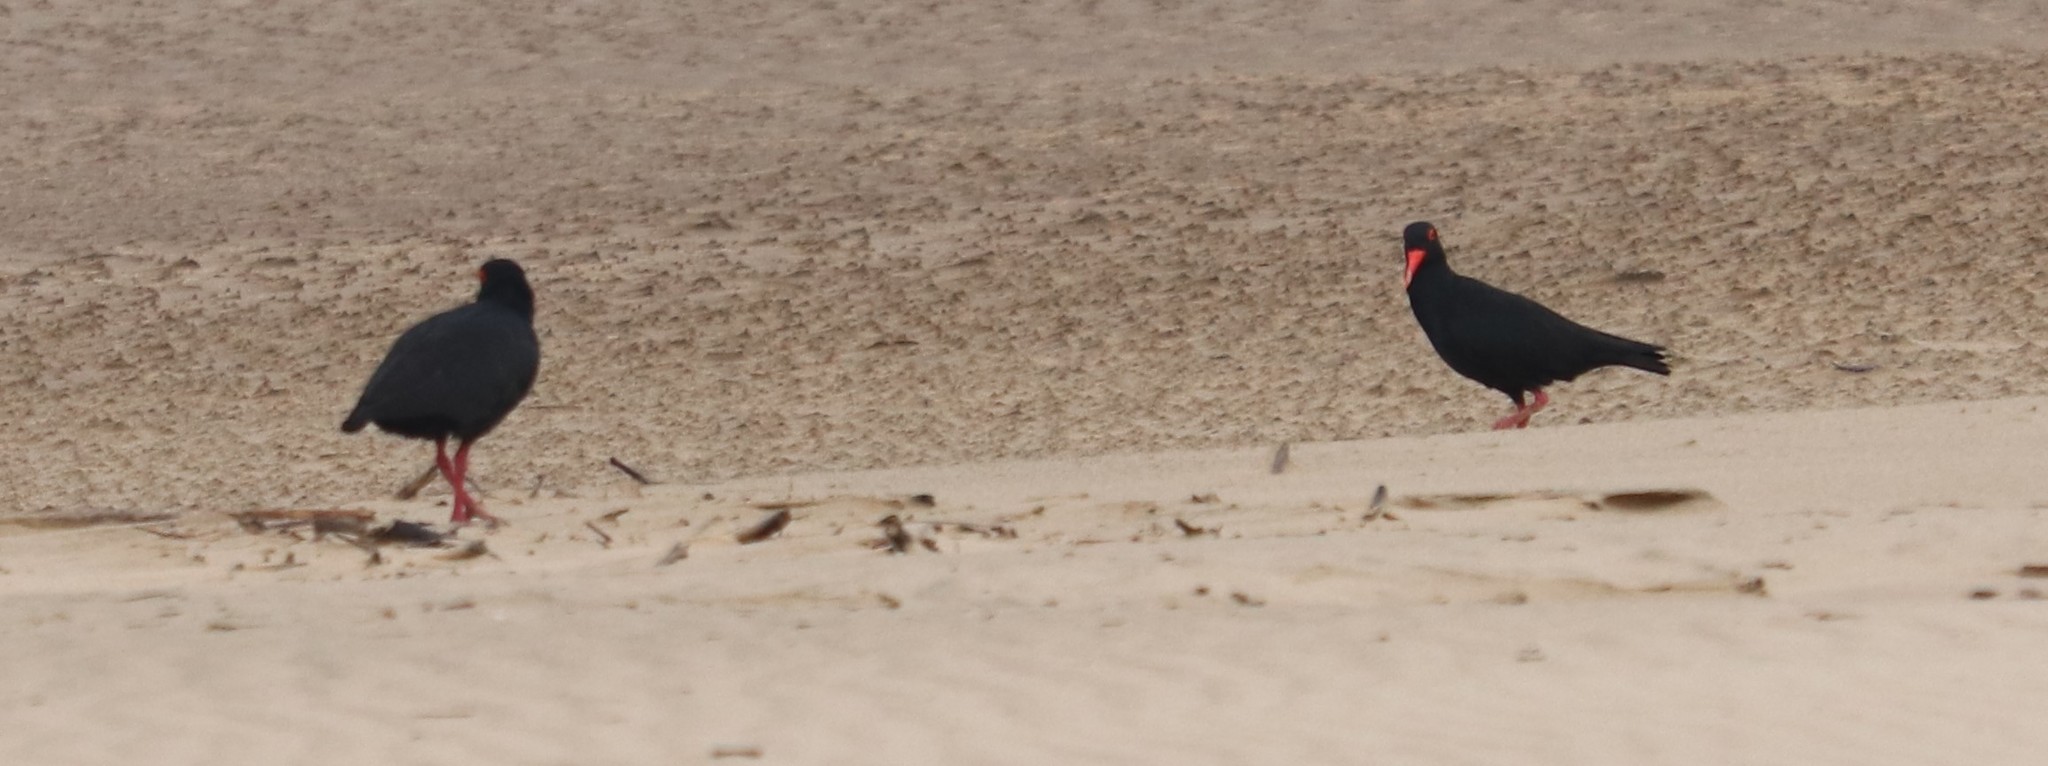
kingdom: Animalia
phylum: Chordata
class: Aves
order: Charadriiformes
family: Haematopodidae
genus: Haematopus
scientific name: Haematopus moquini
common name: African oystercatcher
